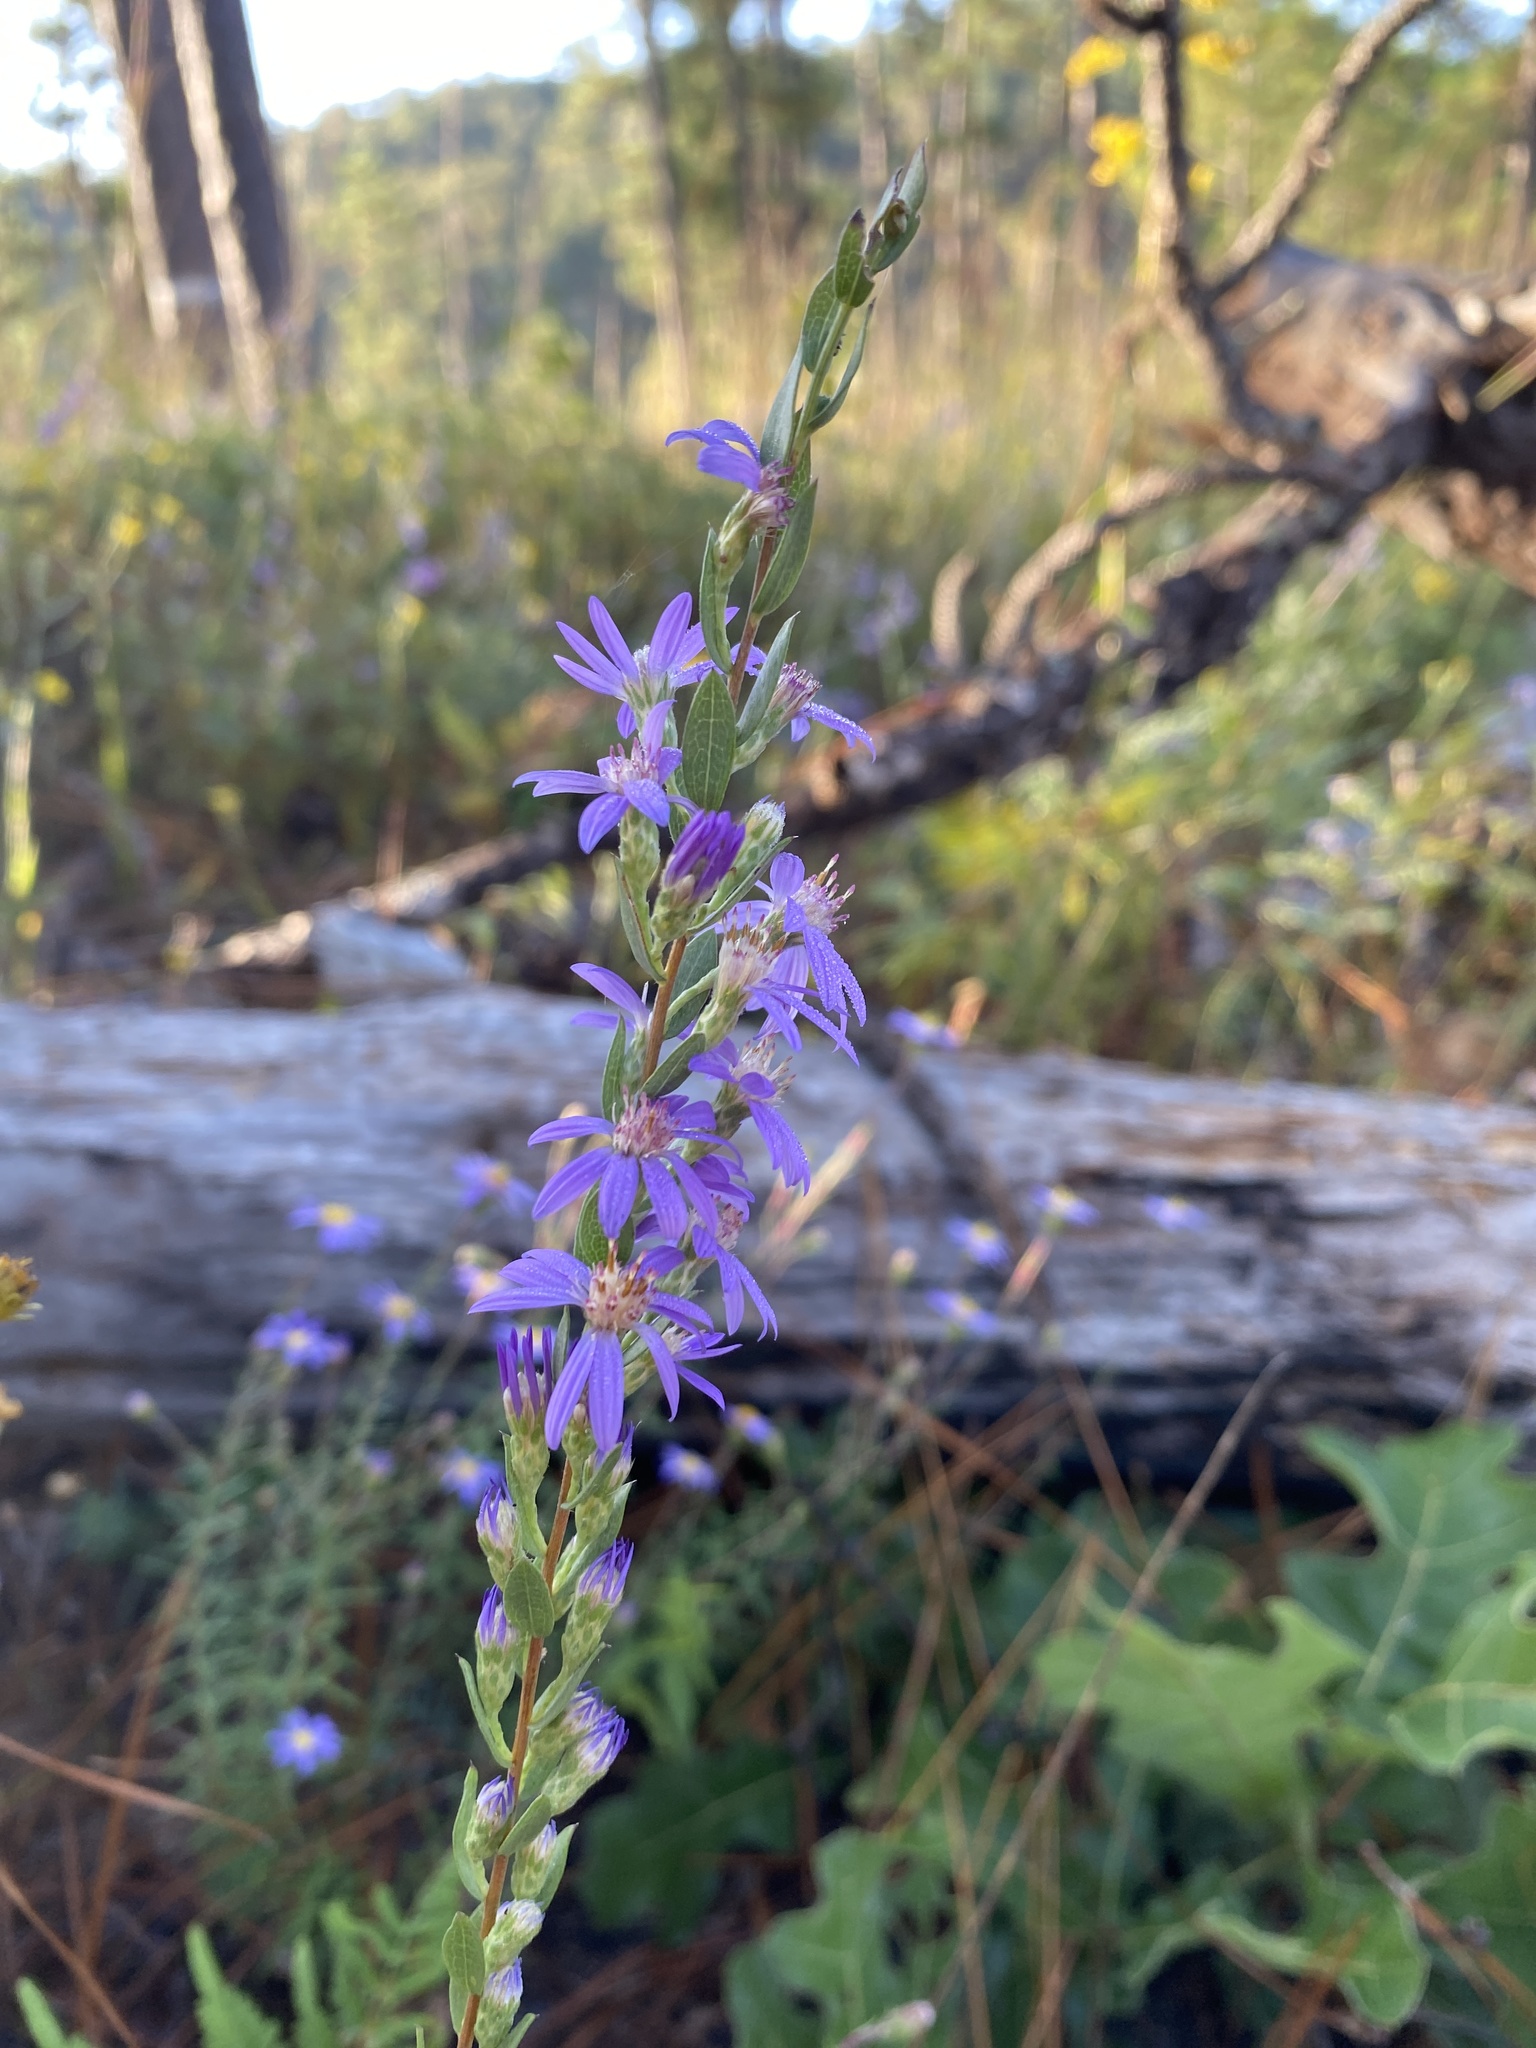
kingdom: Plantae
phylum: Tracheophyta
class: Magnoliopsida
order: Asterales
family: Asteraceae
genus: Symphyotrichum
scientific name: Symphyotrichum concolor
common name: Eastern silver aster
